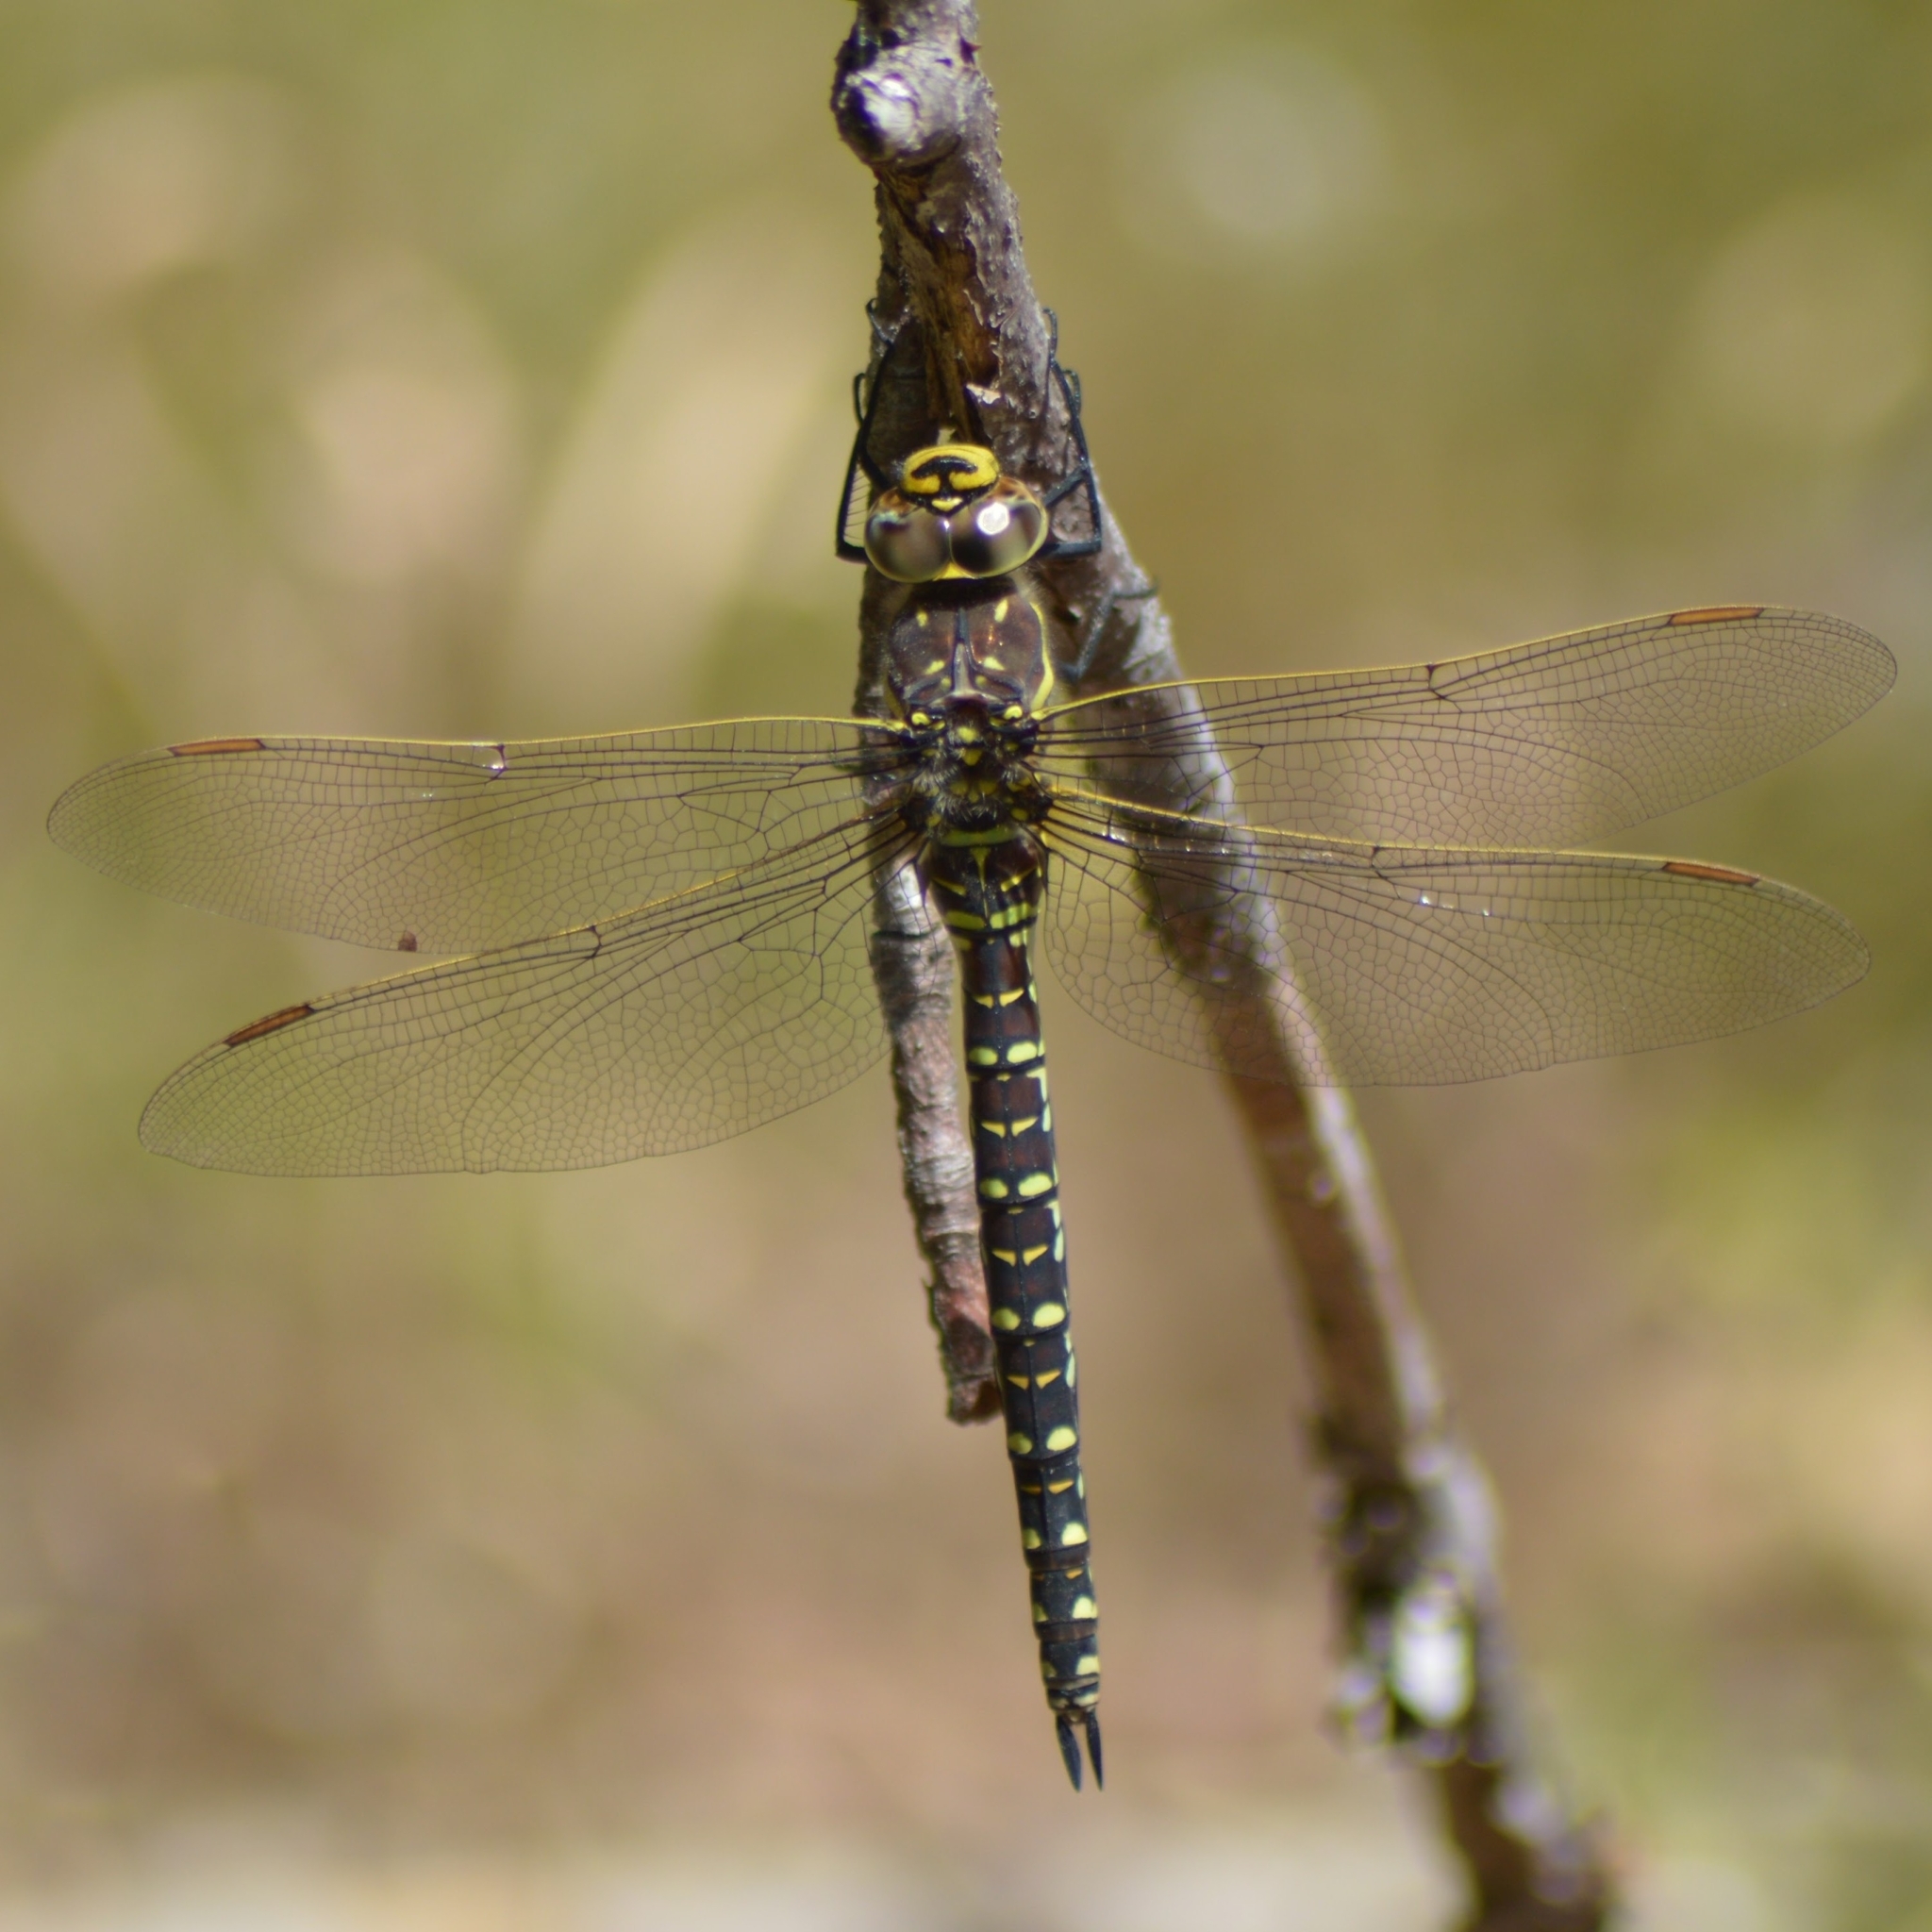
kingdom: Animalia
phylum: Arthropoda
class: Insecta
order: Odonata
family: Aeshnidae
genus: Aeshna
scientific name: Aeshna juncea
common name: Moorland hawker
